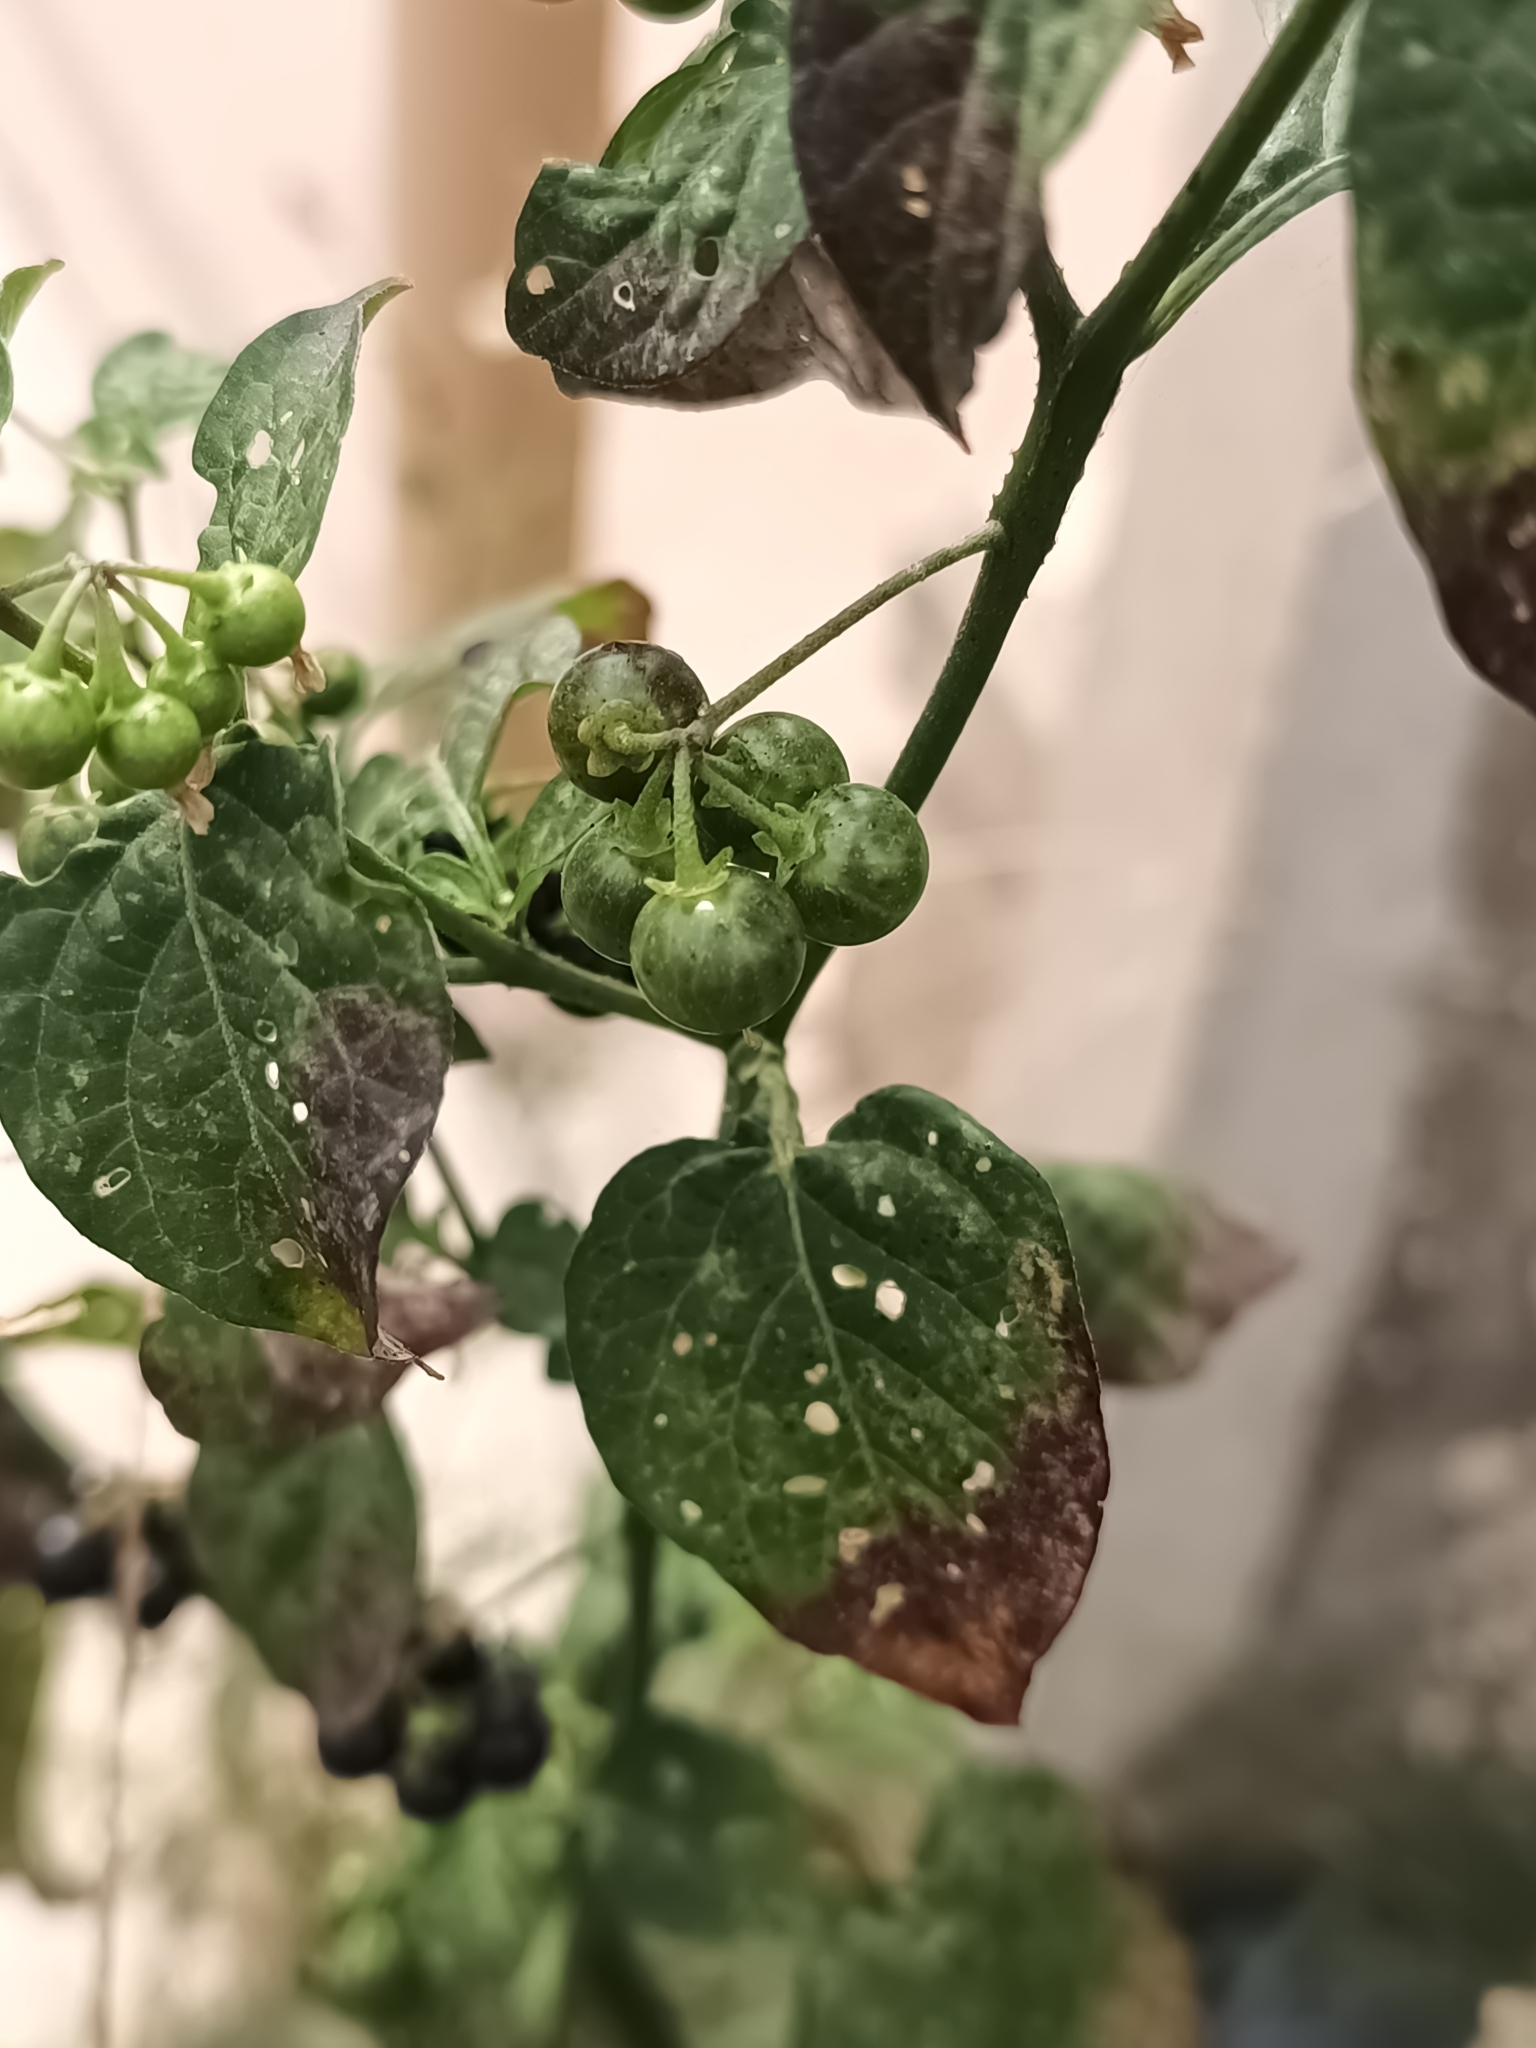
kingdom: Plantae
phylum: Tracheophyta
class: Magnoliopsida
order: Solanales
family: Solanaceae
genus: Solanum
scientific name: Solanum americanum
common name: American black nightshade
